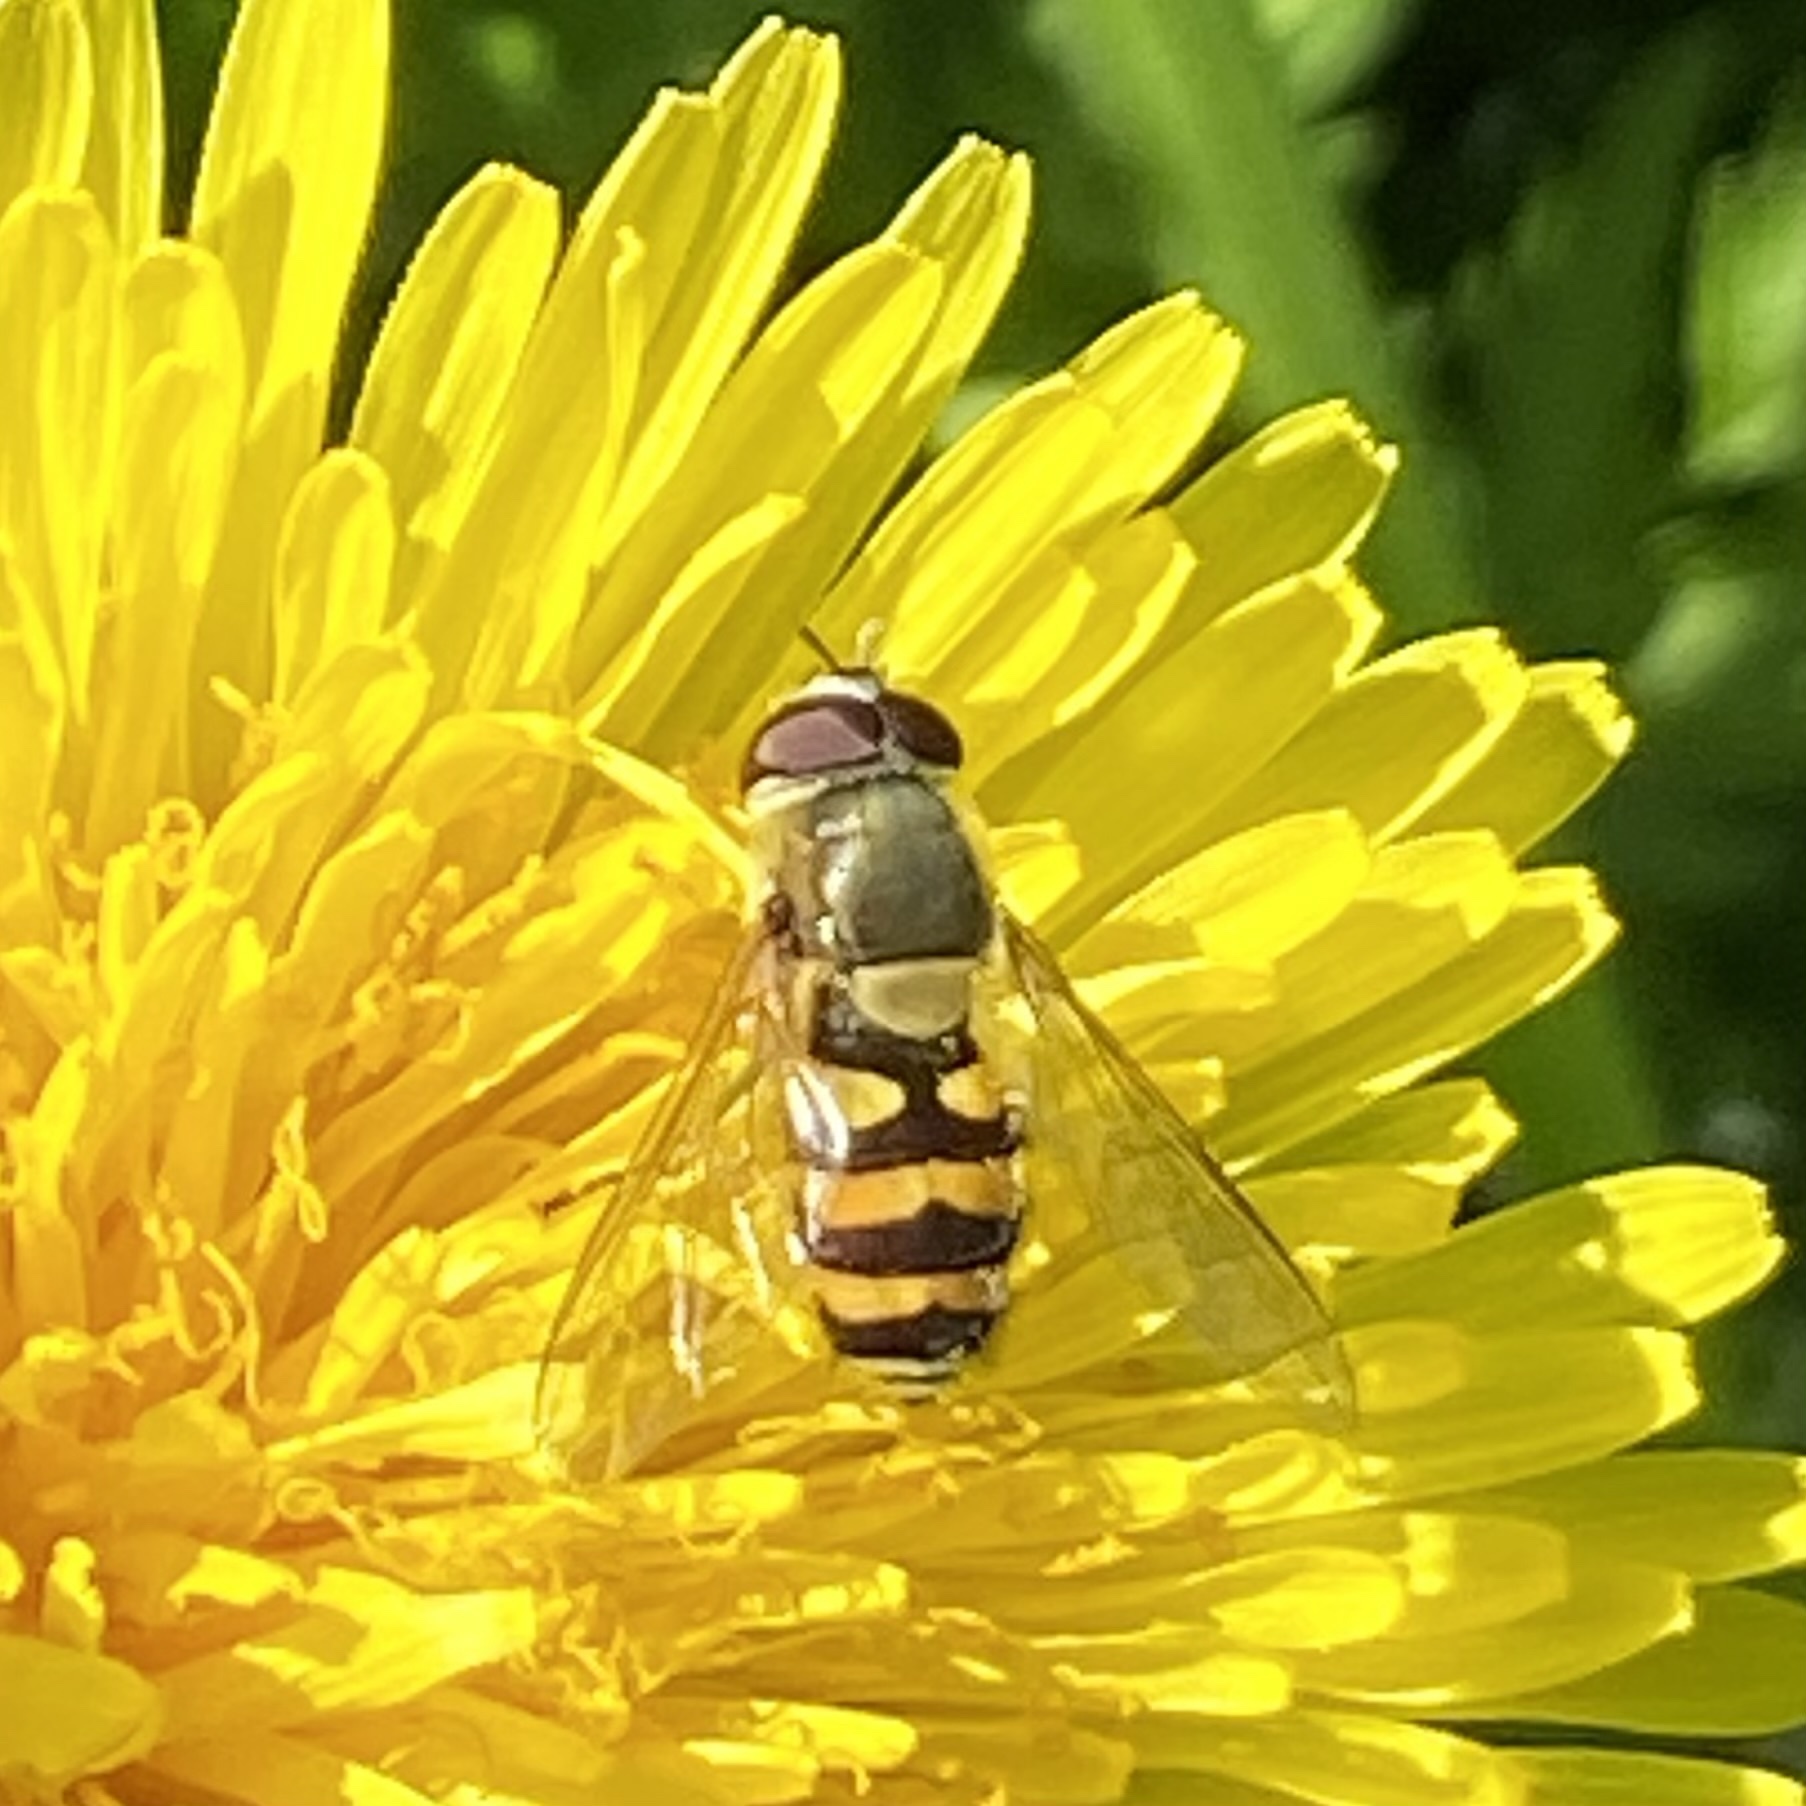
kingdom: Animalia
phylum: Arthropoda
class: Insecta
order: Diptera
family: Syrphidae
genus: Syrphus
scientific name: Syrphus
